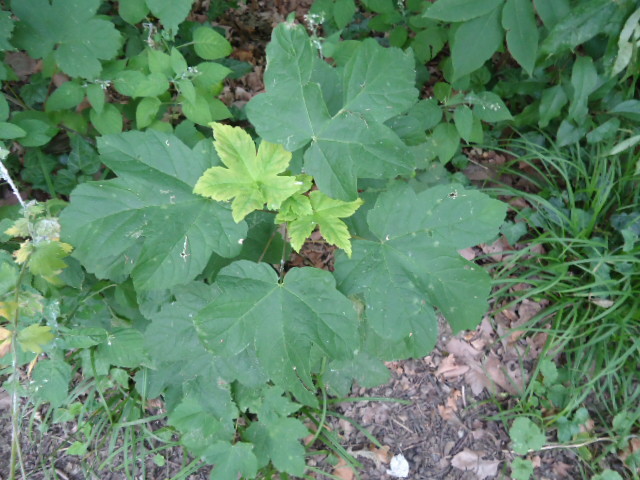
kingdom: Plantae
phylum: Tracheophyta
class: Magnoliopsida
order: Sapindales
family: Sapindaceae
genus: Acer
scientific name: Acer pseudoplatanus
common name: Sycamore
